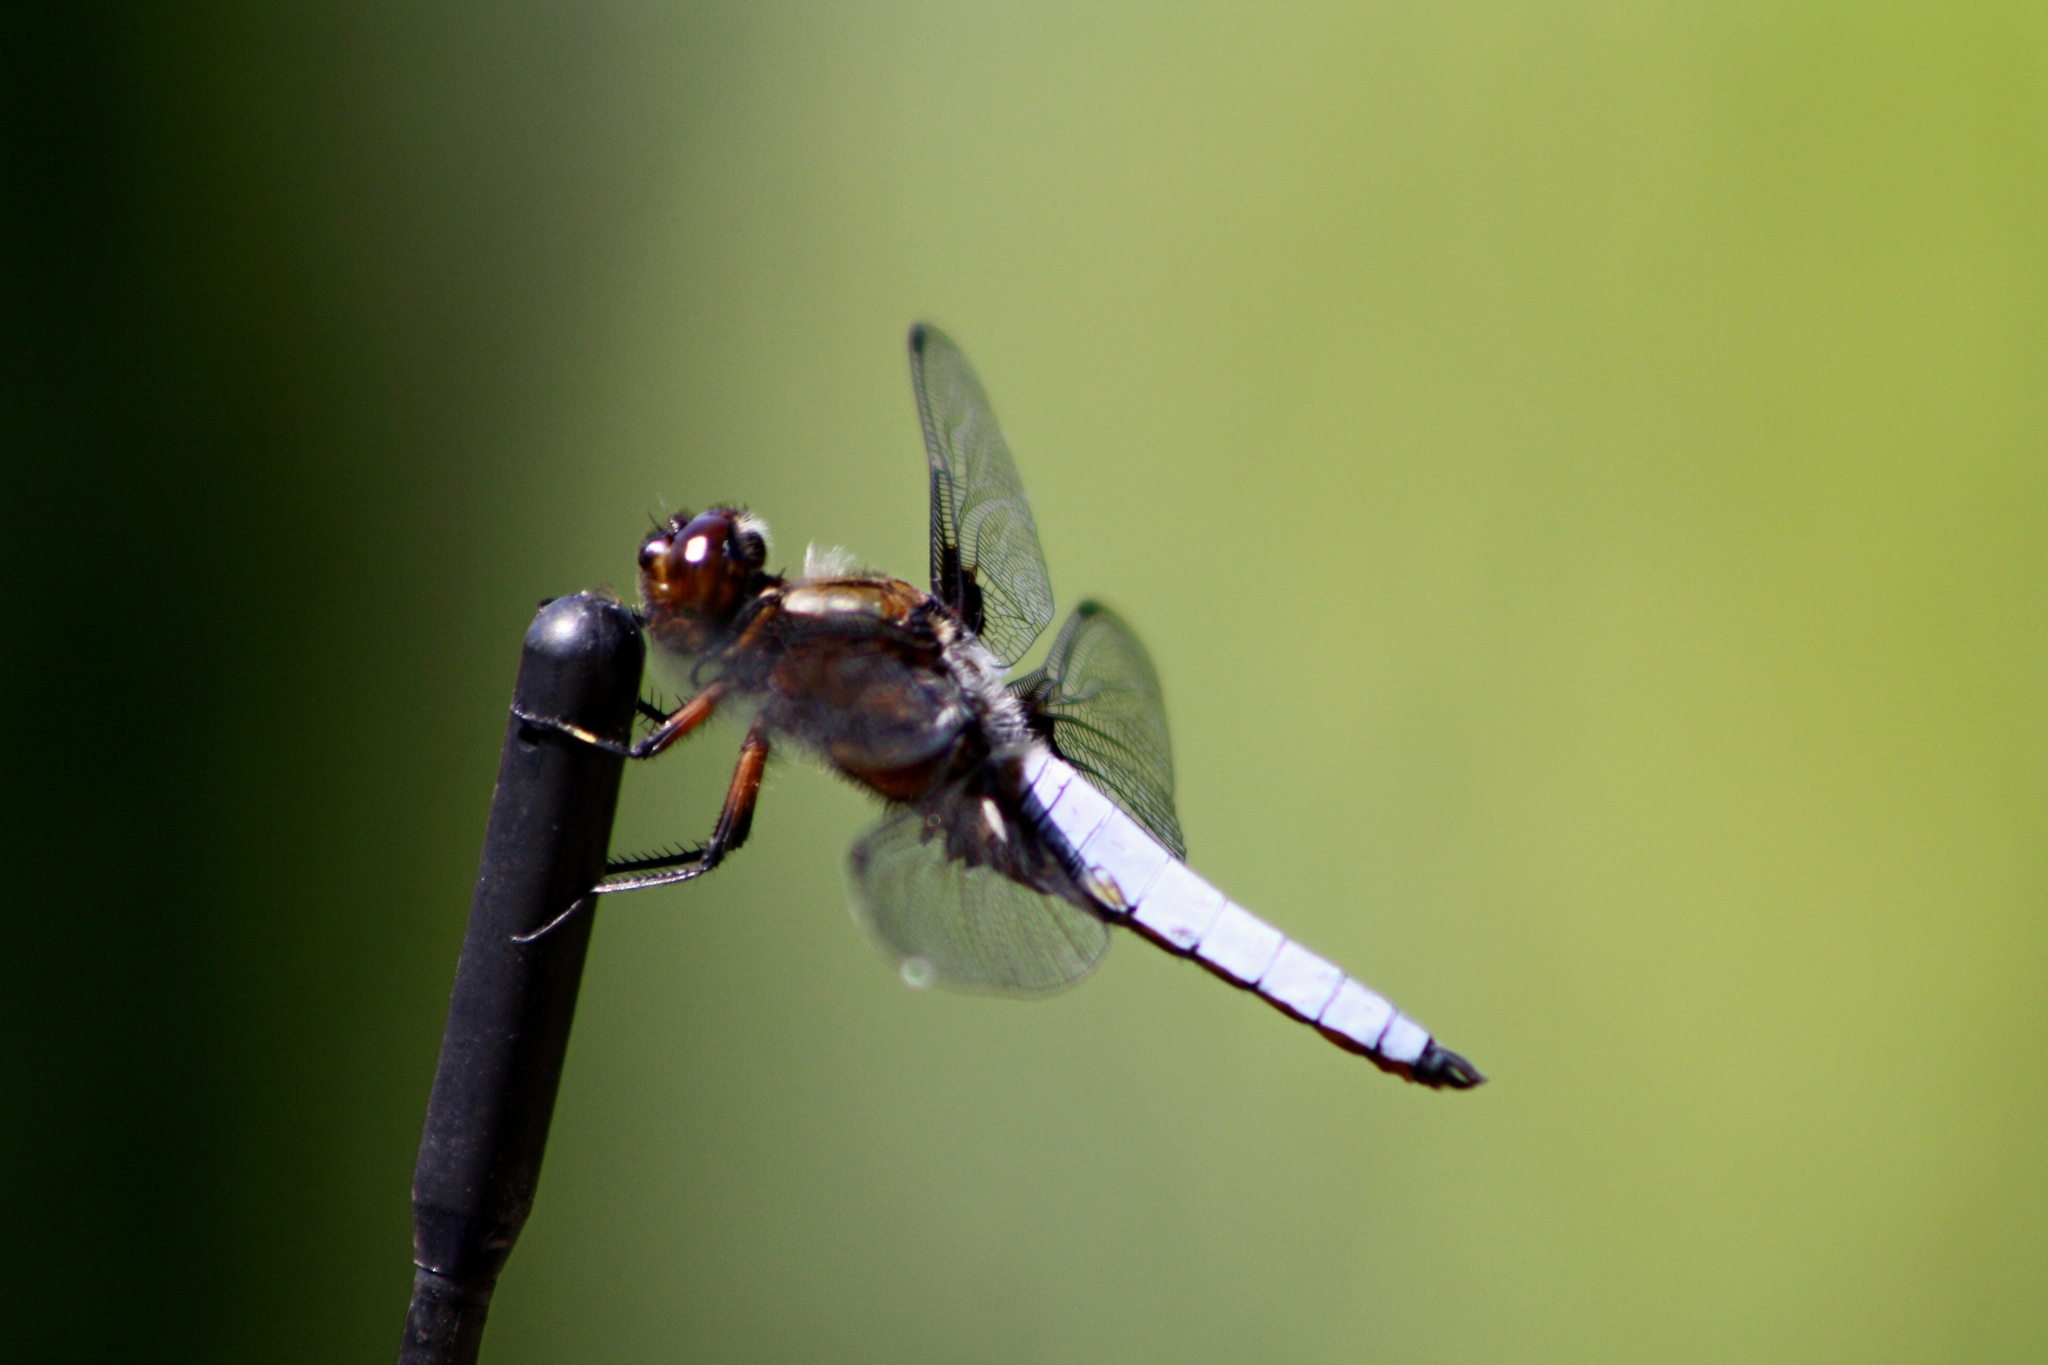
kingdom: Animalia
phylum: Arthropoda
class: Insecta
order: Odonata
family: Libellulidae
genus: Libellula
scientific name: Libellula depressa
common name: Broad-bodied chaser
